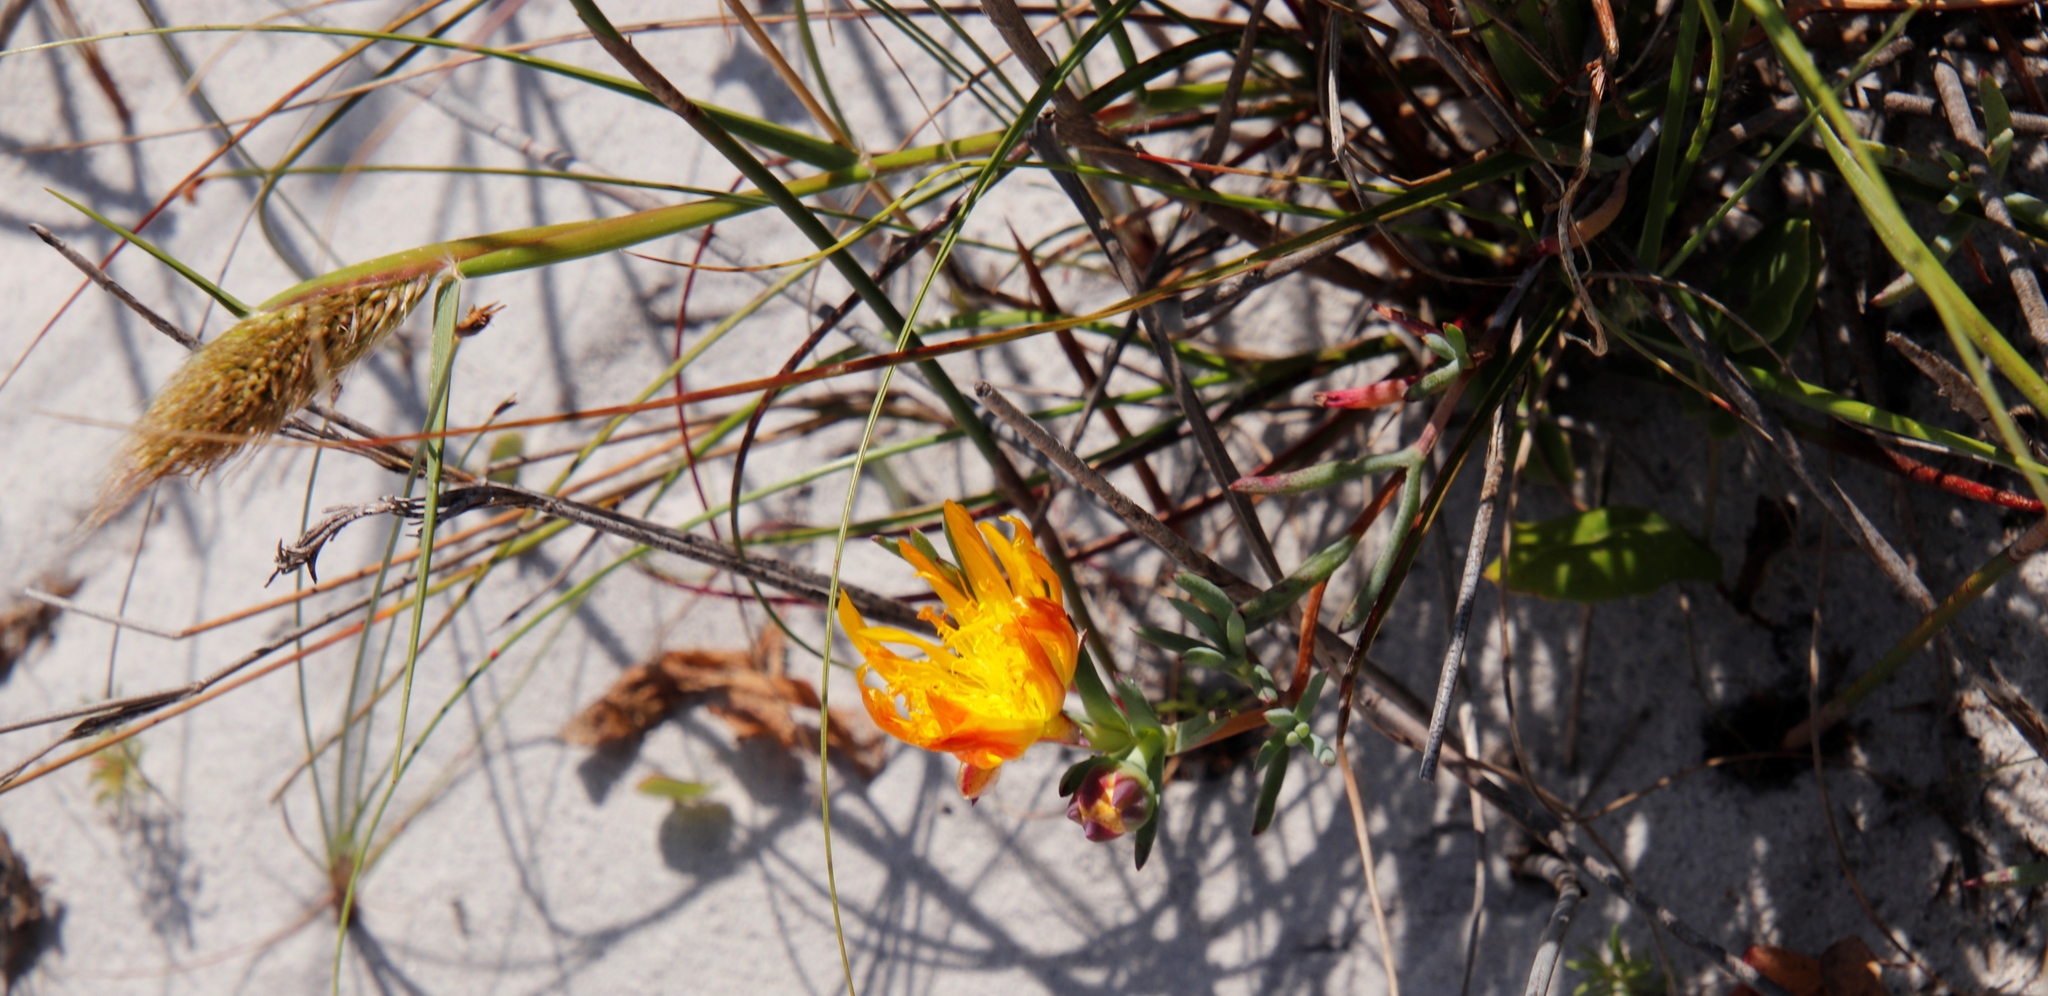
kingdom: Plantae
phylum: Tracheophyta
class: Magnoliopsida
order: Caryophyllales
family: Aizoaceae
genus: Lampranthus
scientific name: Lampranthus bicolor
